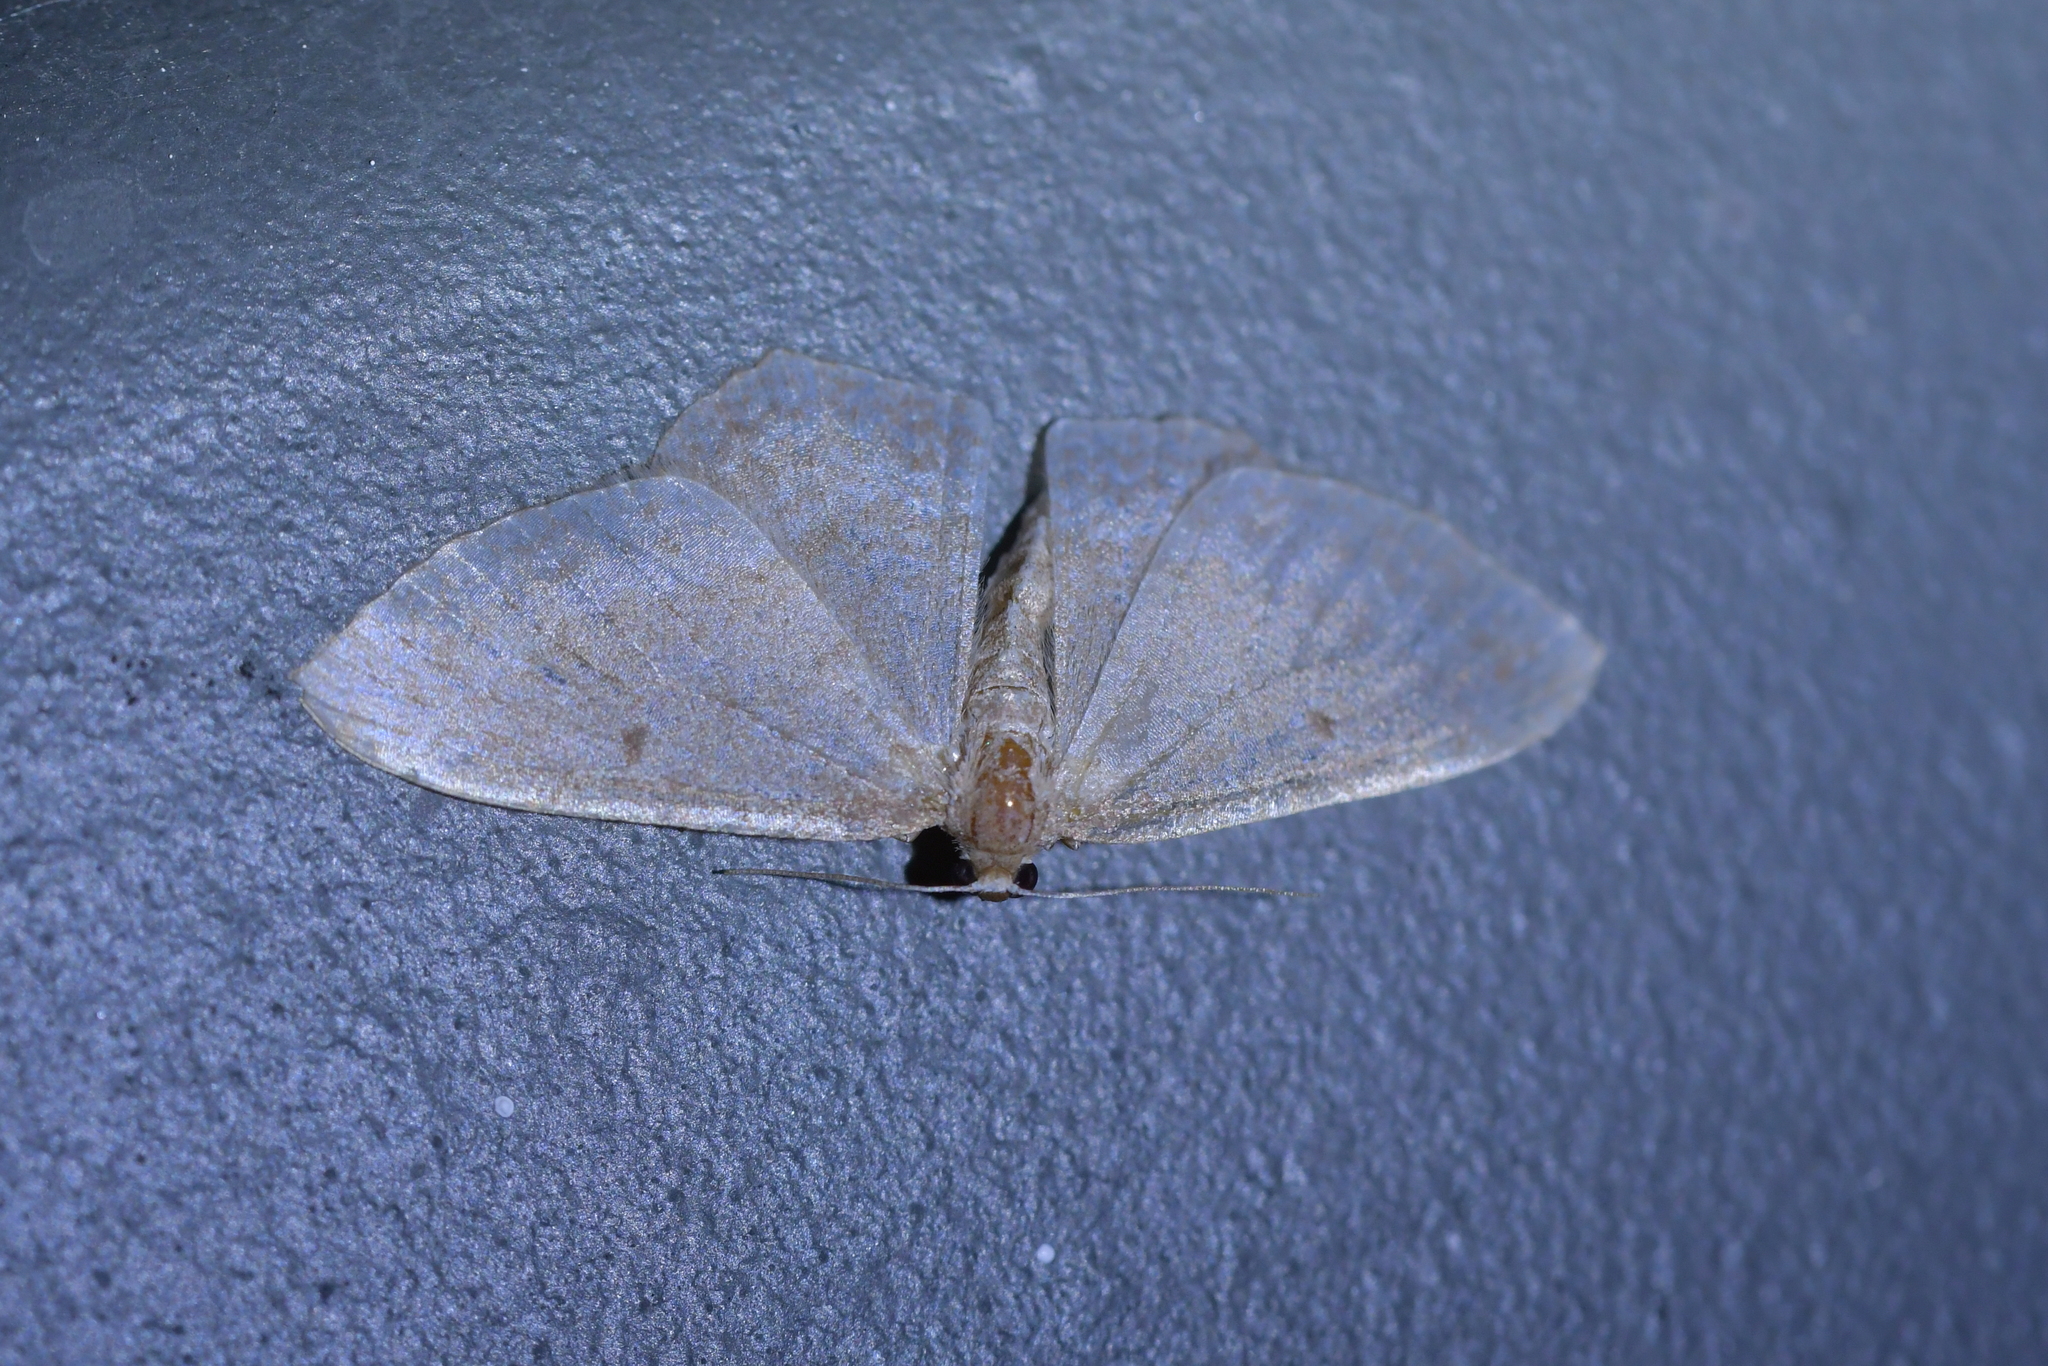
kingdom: Animalia
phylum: Arthropoda
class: Insecta
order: Lepidoptera
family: Geometridae
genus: Poecilasthena
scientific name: Poecilasthena pulchraria
